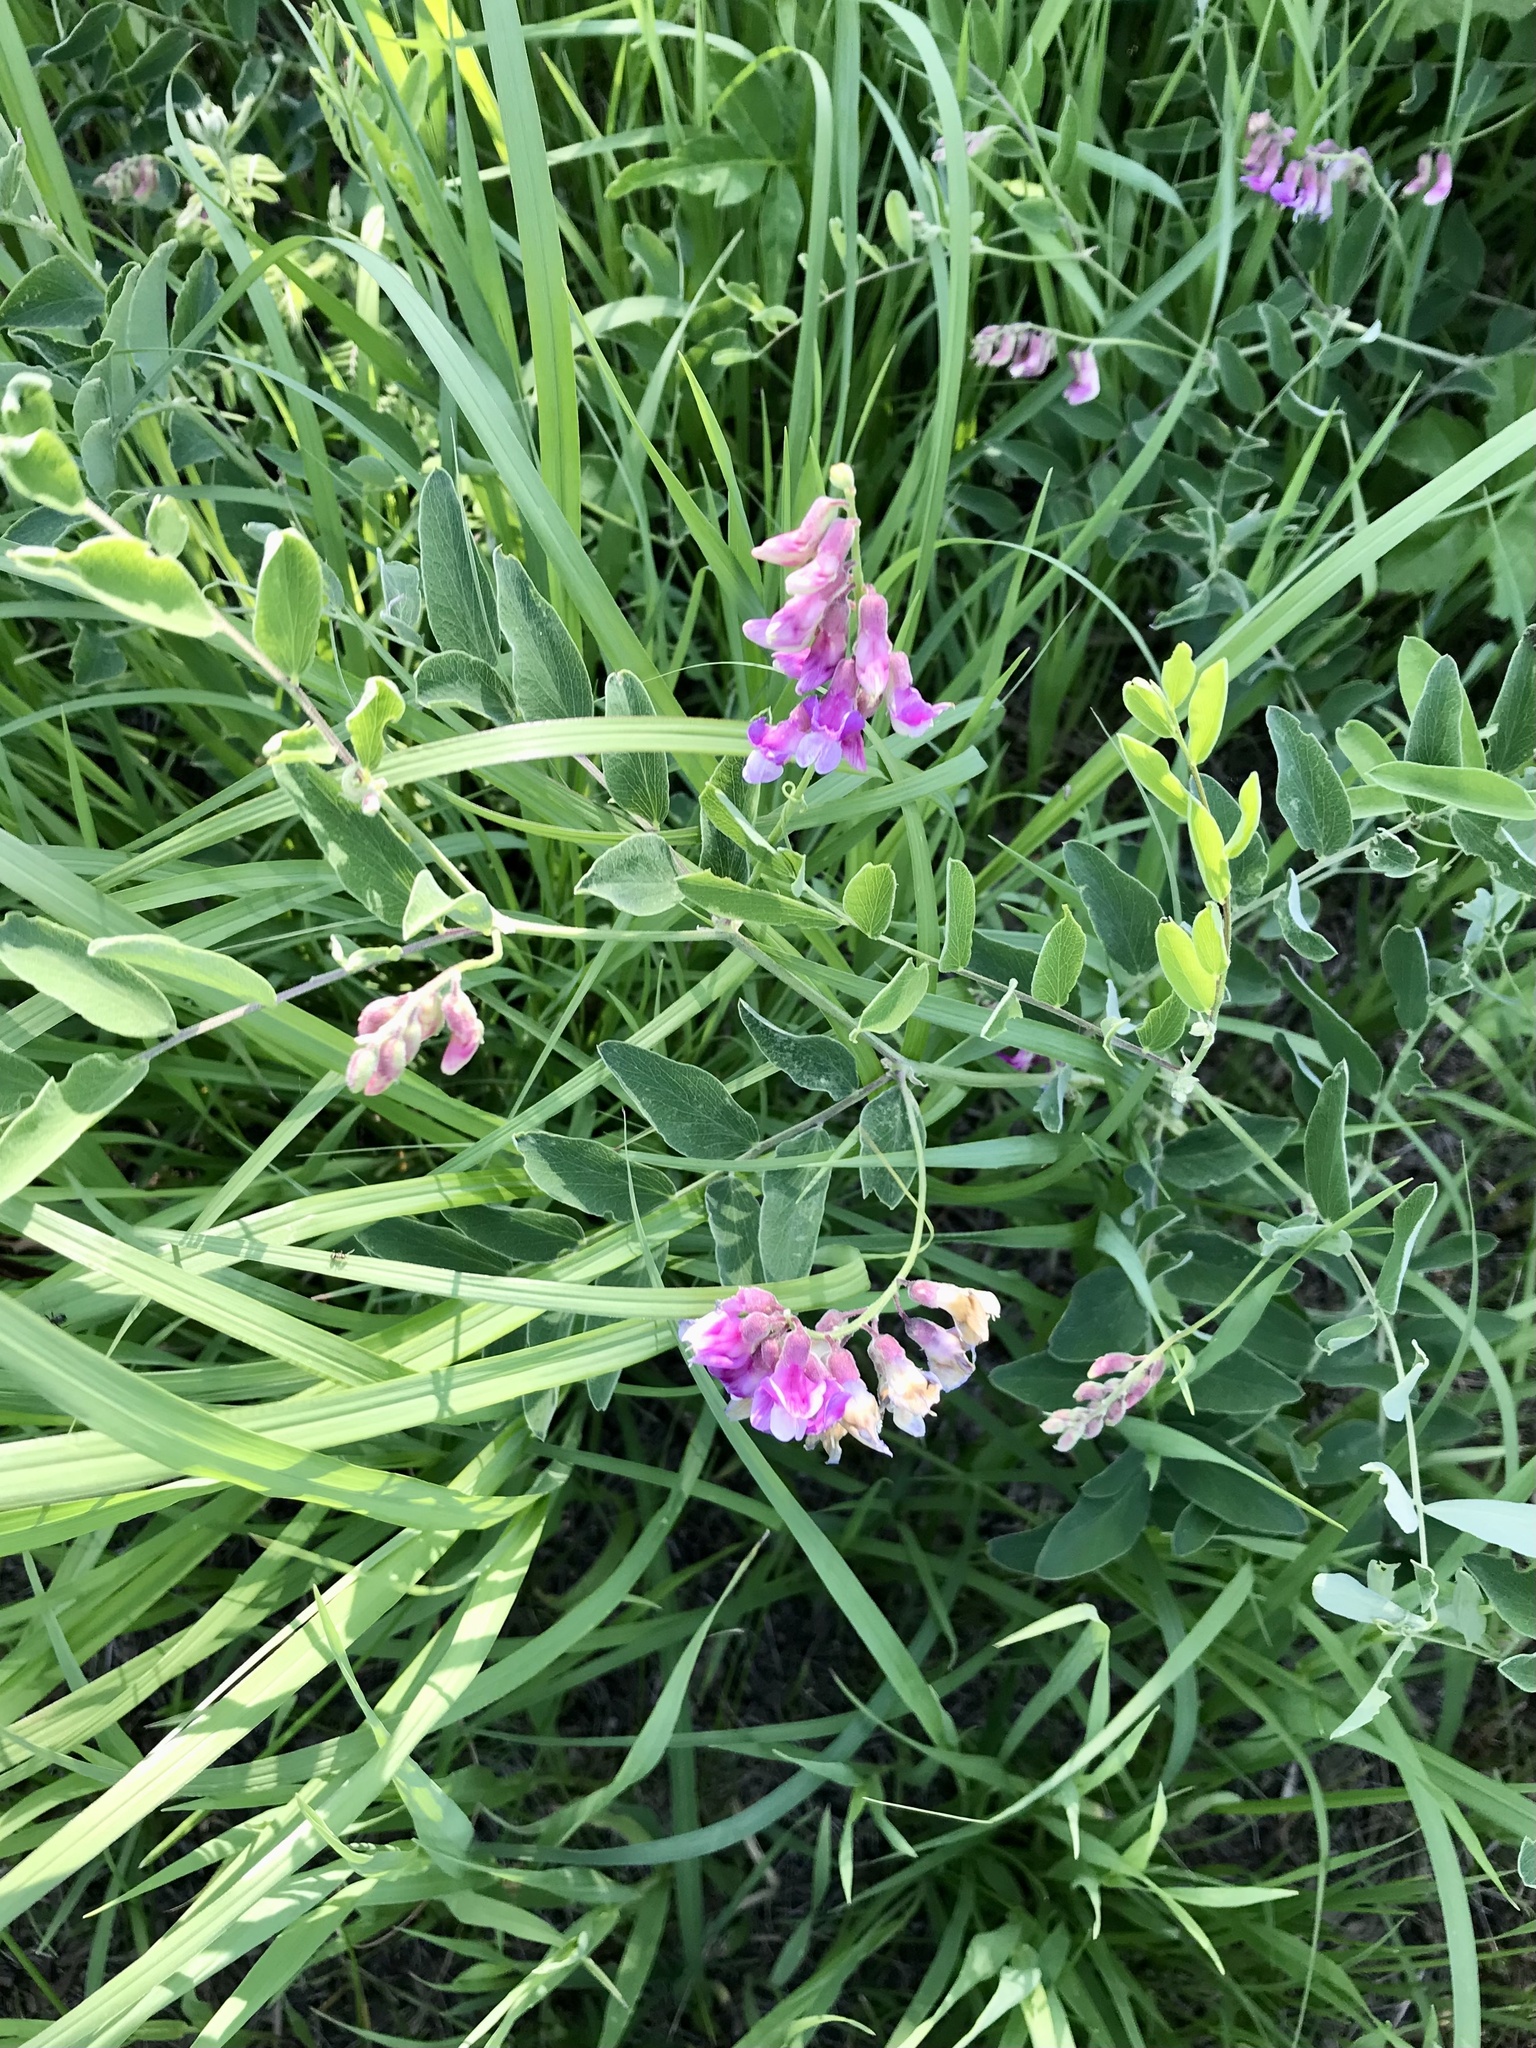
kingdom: Plantae
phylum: Tracheophyta
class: Magnoliopsida
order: Fabales
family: Fabaceae
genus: Lathyrus
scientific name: Lathyrus venosus
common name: Forest-pea
